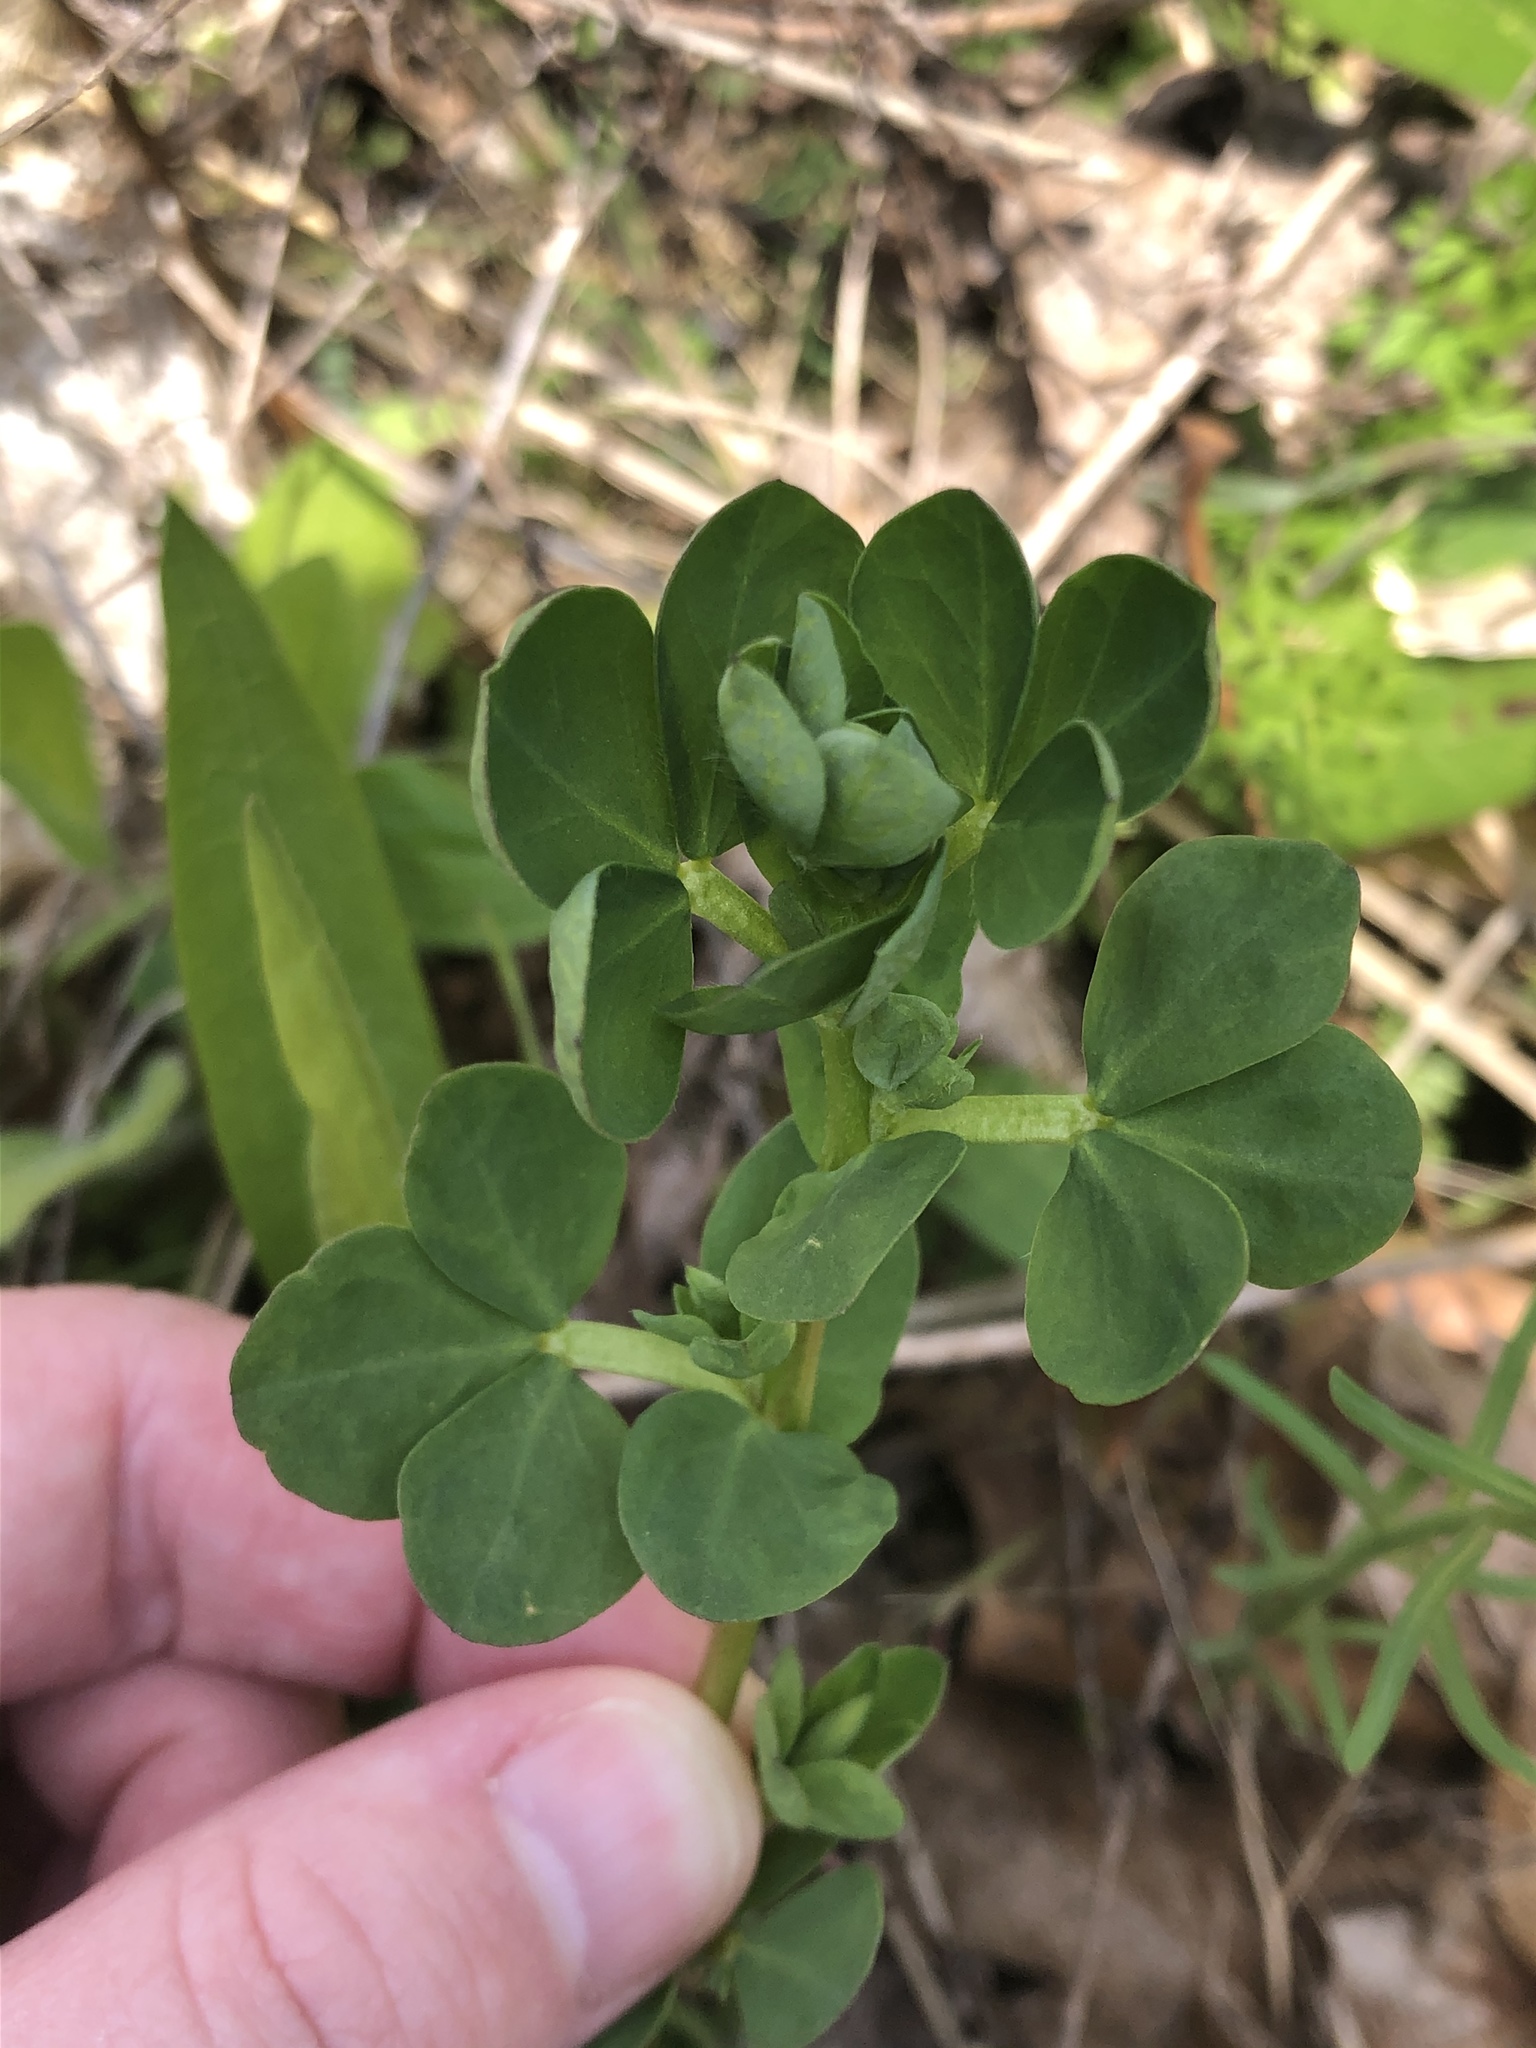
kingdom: Plantae
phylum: Tracheophyta
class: Magnoliopsida
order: Fabales
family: Fabaceae
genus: Lotus
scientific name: Lotus corniculatus
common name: Common bird's-foot-trefoil
